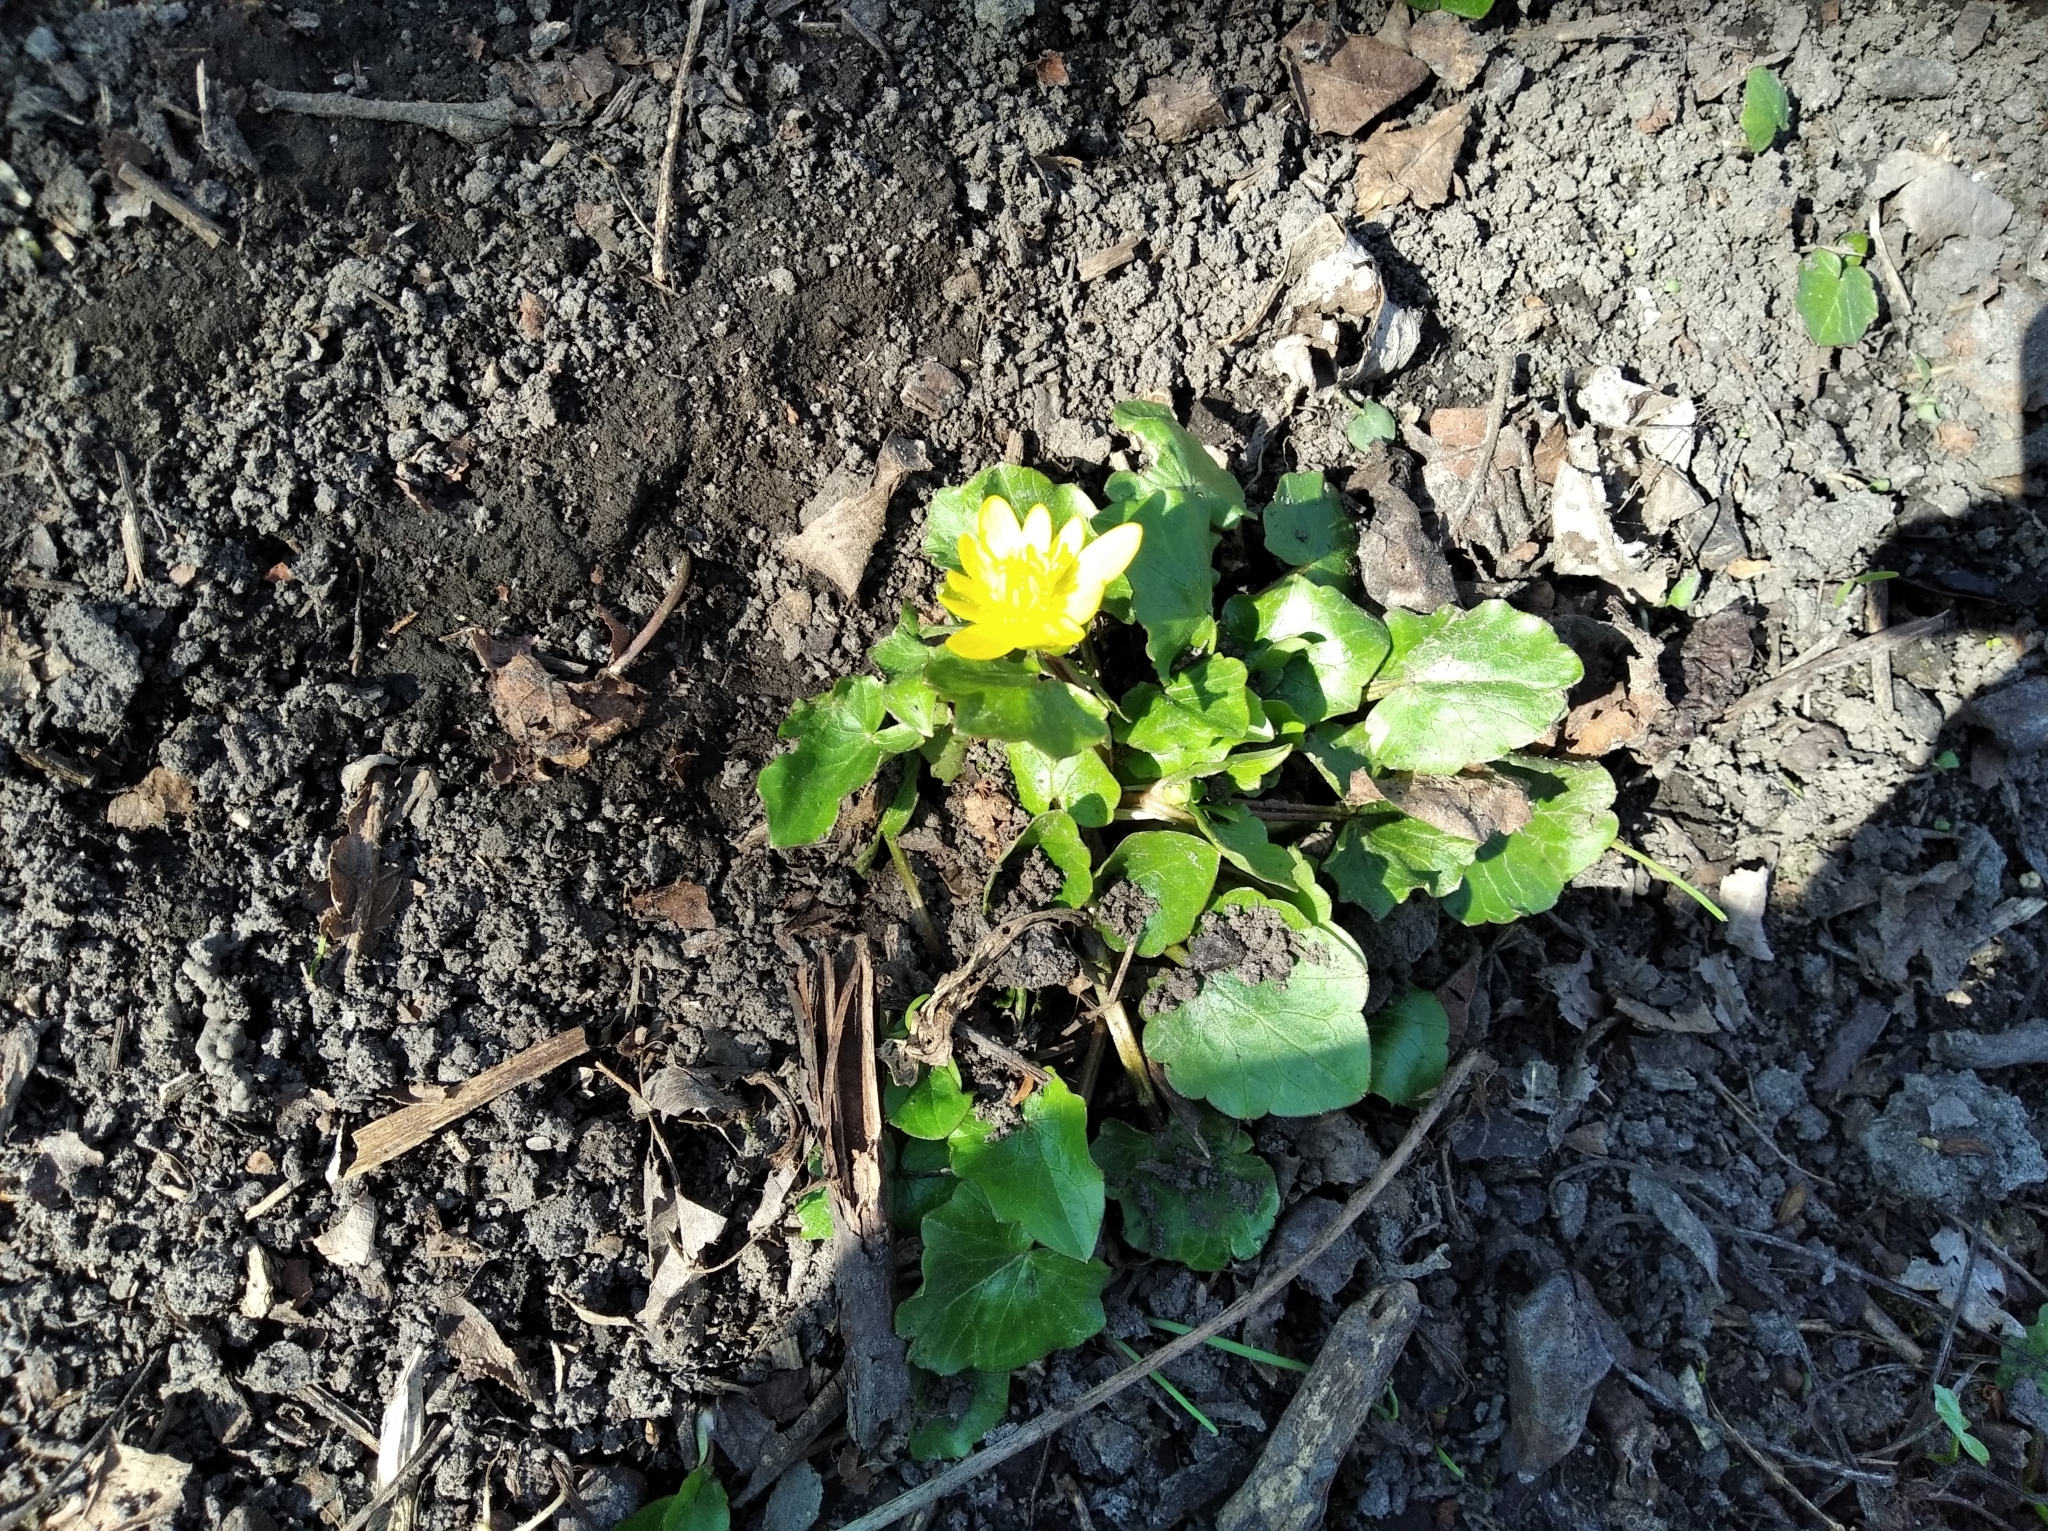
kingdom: Plantae
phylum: Tracheophyta
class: Magnoliopsida
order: Ranunculales
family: Ranunculaceae
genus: Ficaria
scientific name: Ficaria verna
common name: Lesser celandine
